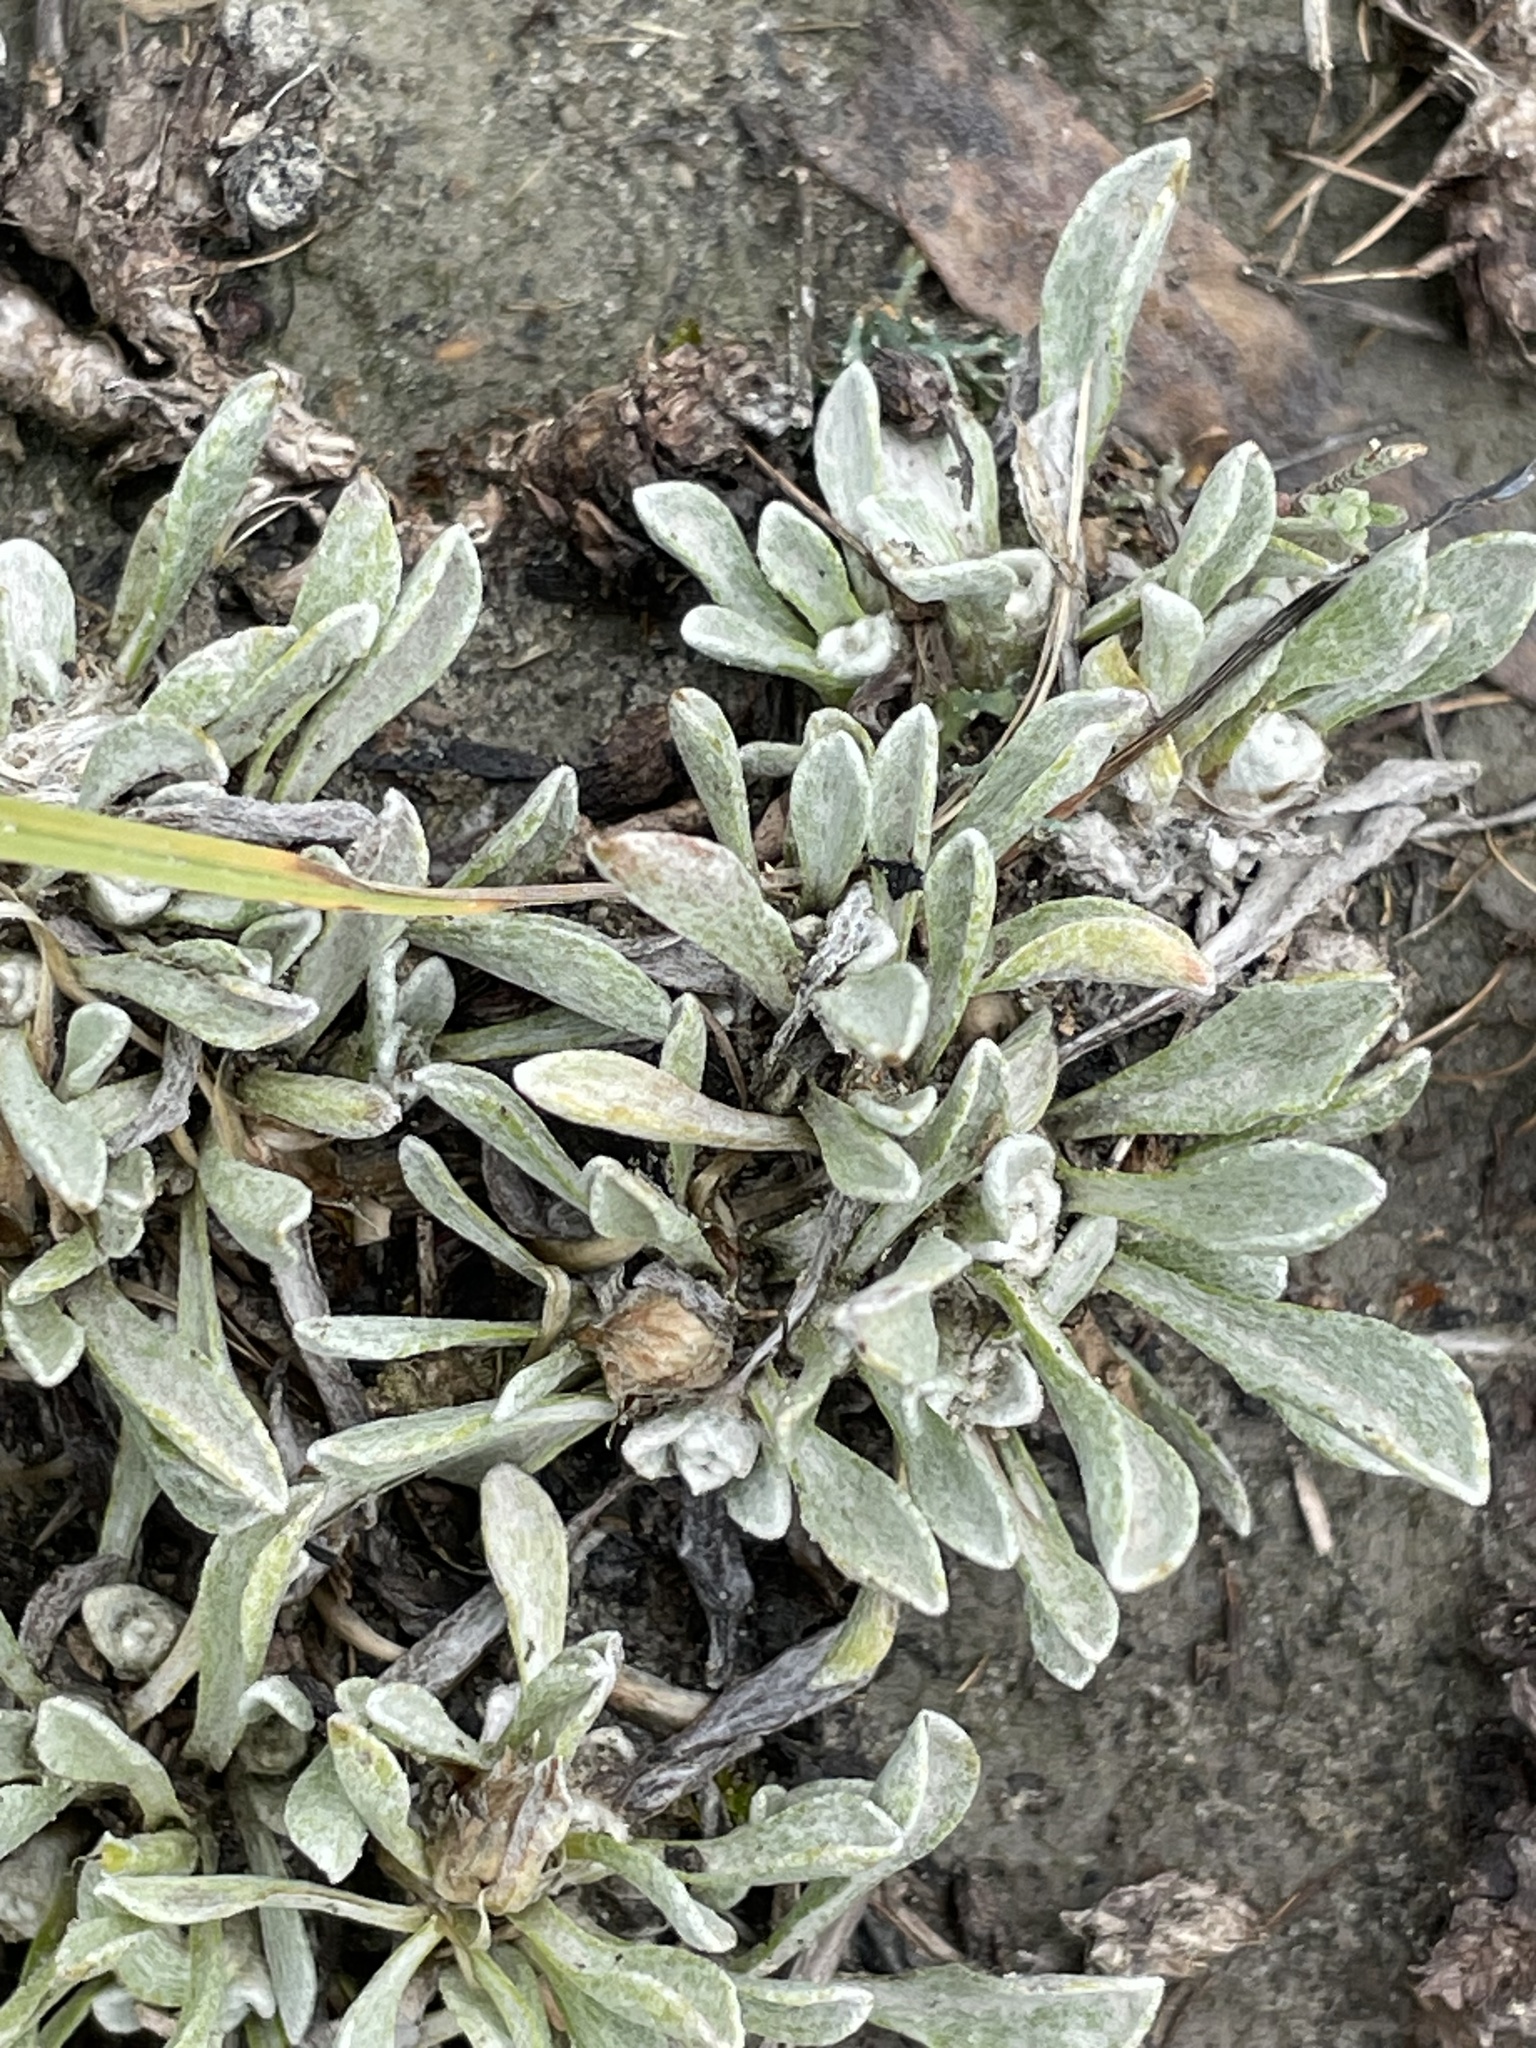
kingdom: Plantae
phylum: Tracheophyta
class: Magnoliopsida
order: Asterales
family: Asteraceae
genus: Antennaria
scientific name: Antennaria dimorpha
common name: Cushion pussytoes
